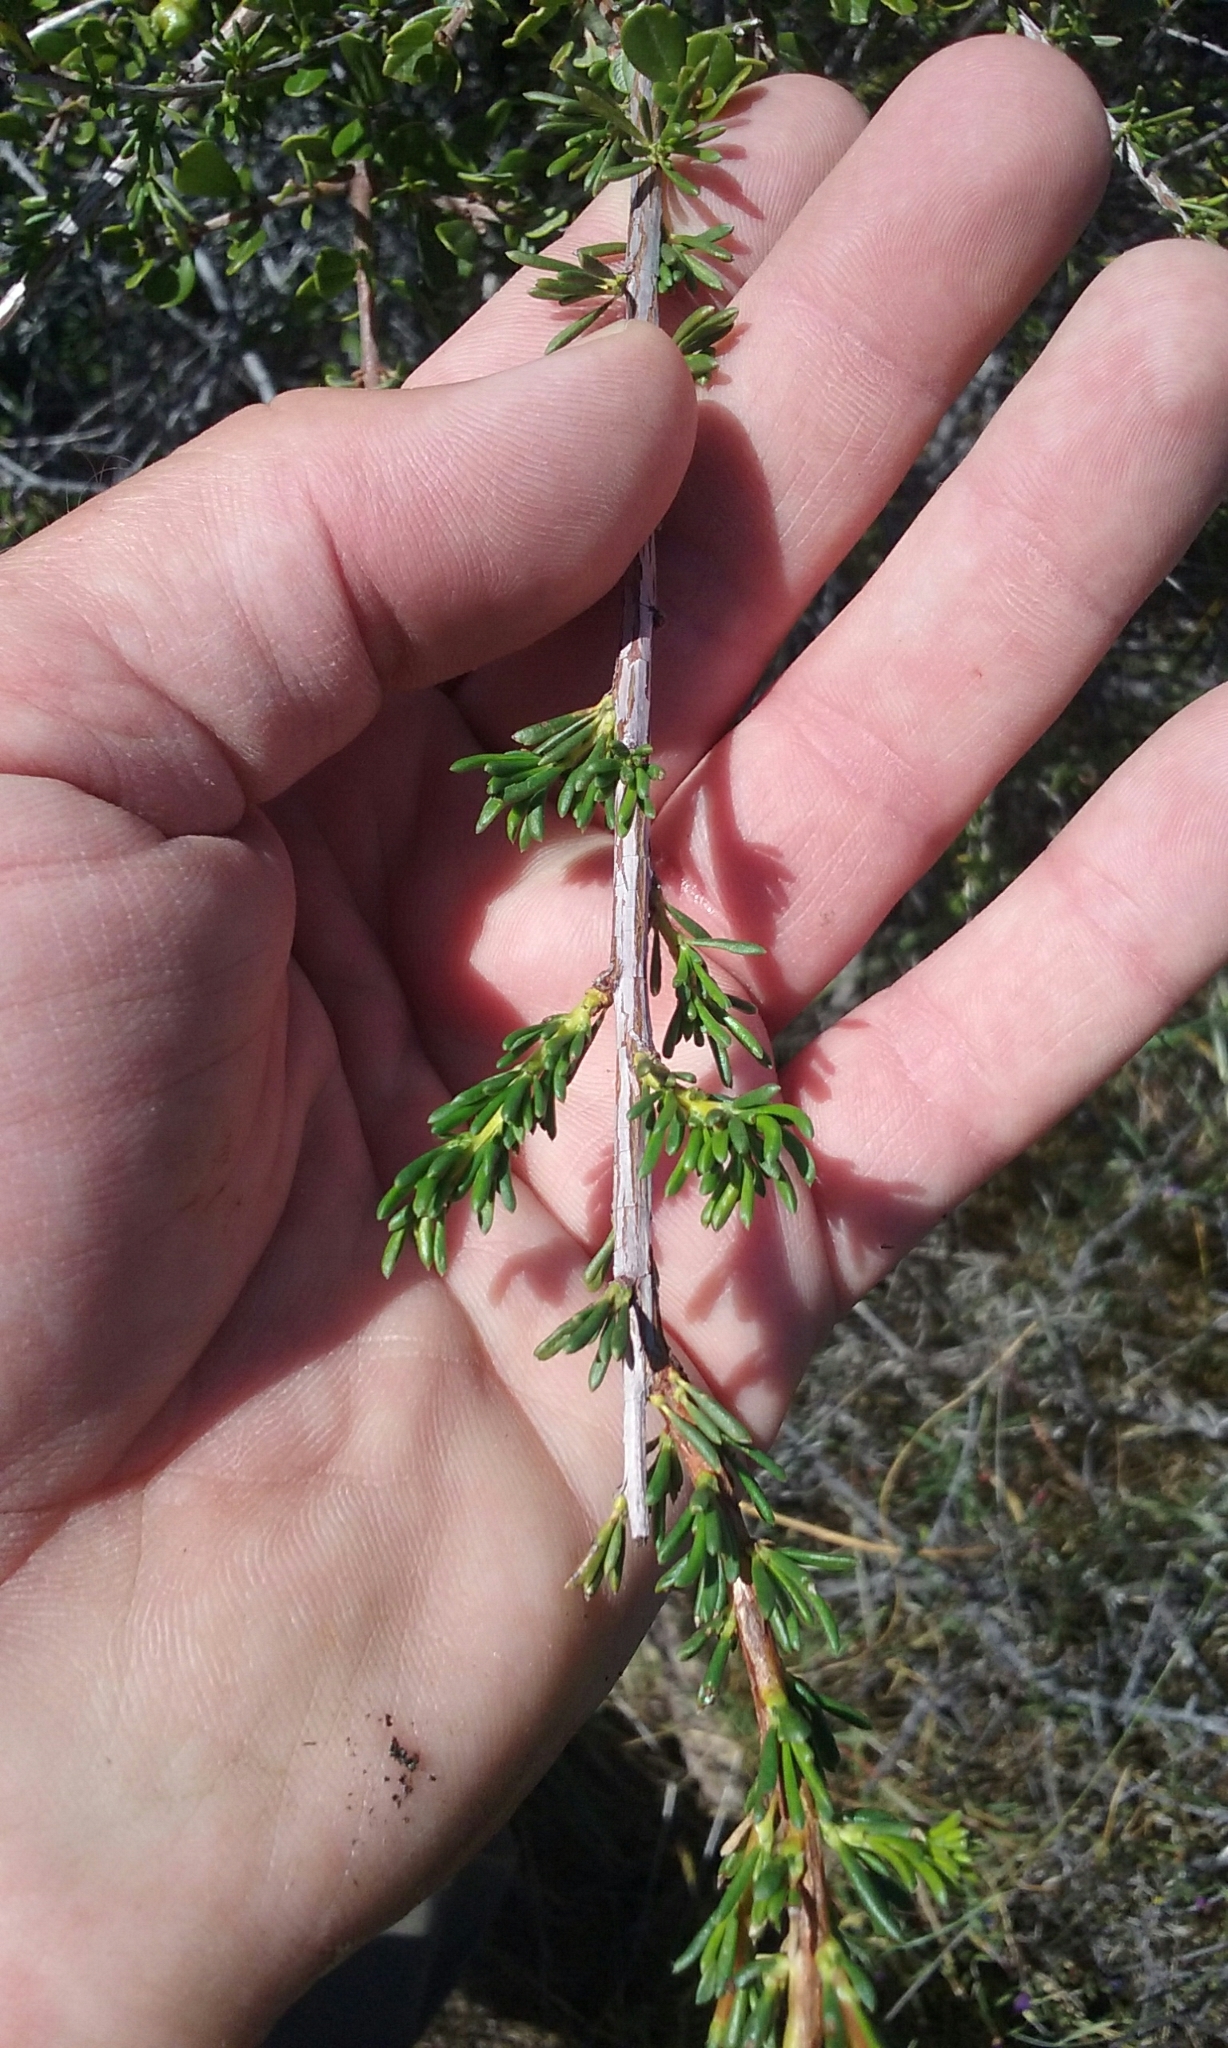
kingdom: Plantae
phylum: Tracheophyta
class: Magnoliopsida
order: Rosales
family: Rosaceae
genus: Adenostoma
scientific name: Adenostoma fasciculatum
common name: Chamise
